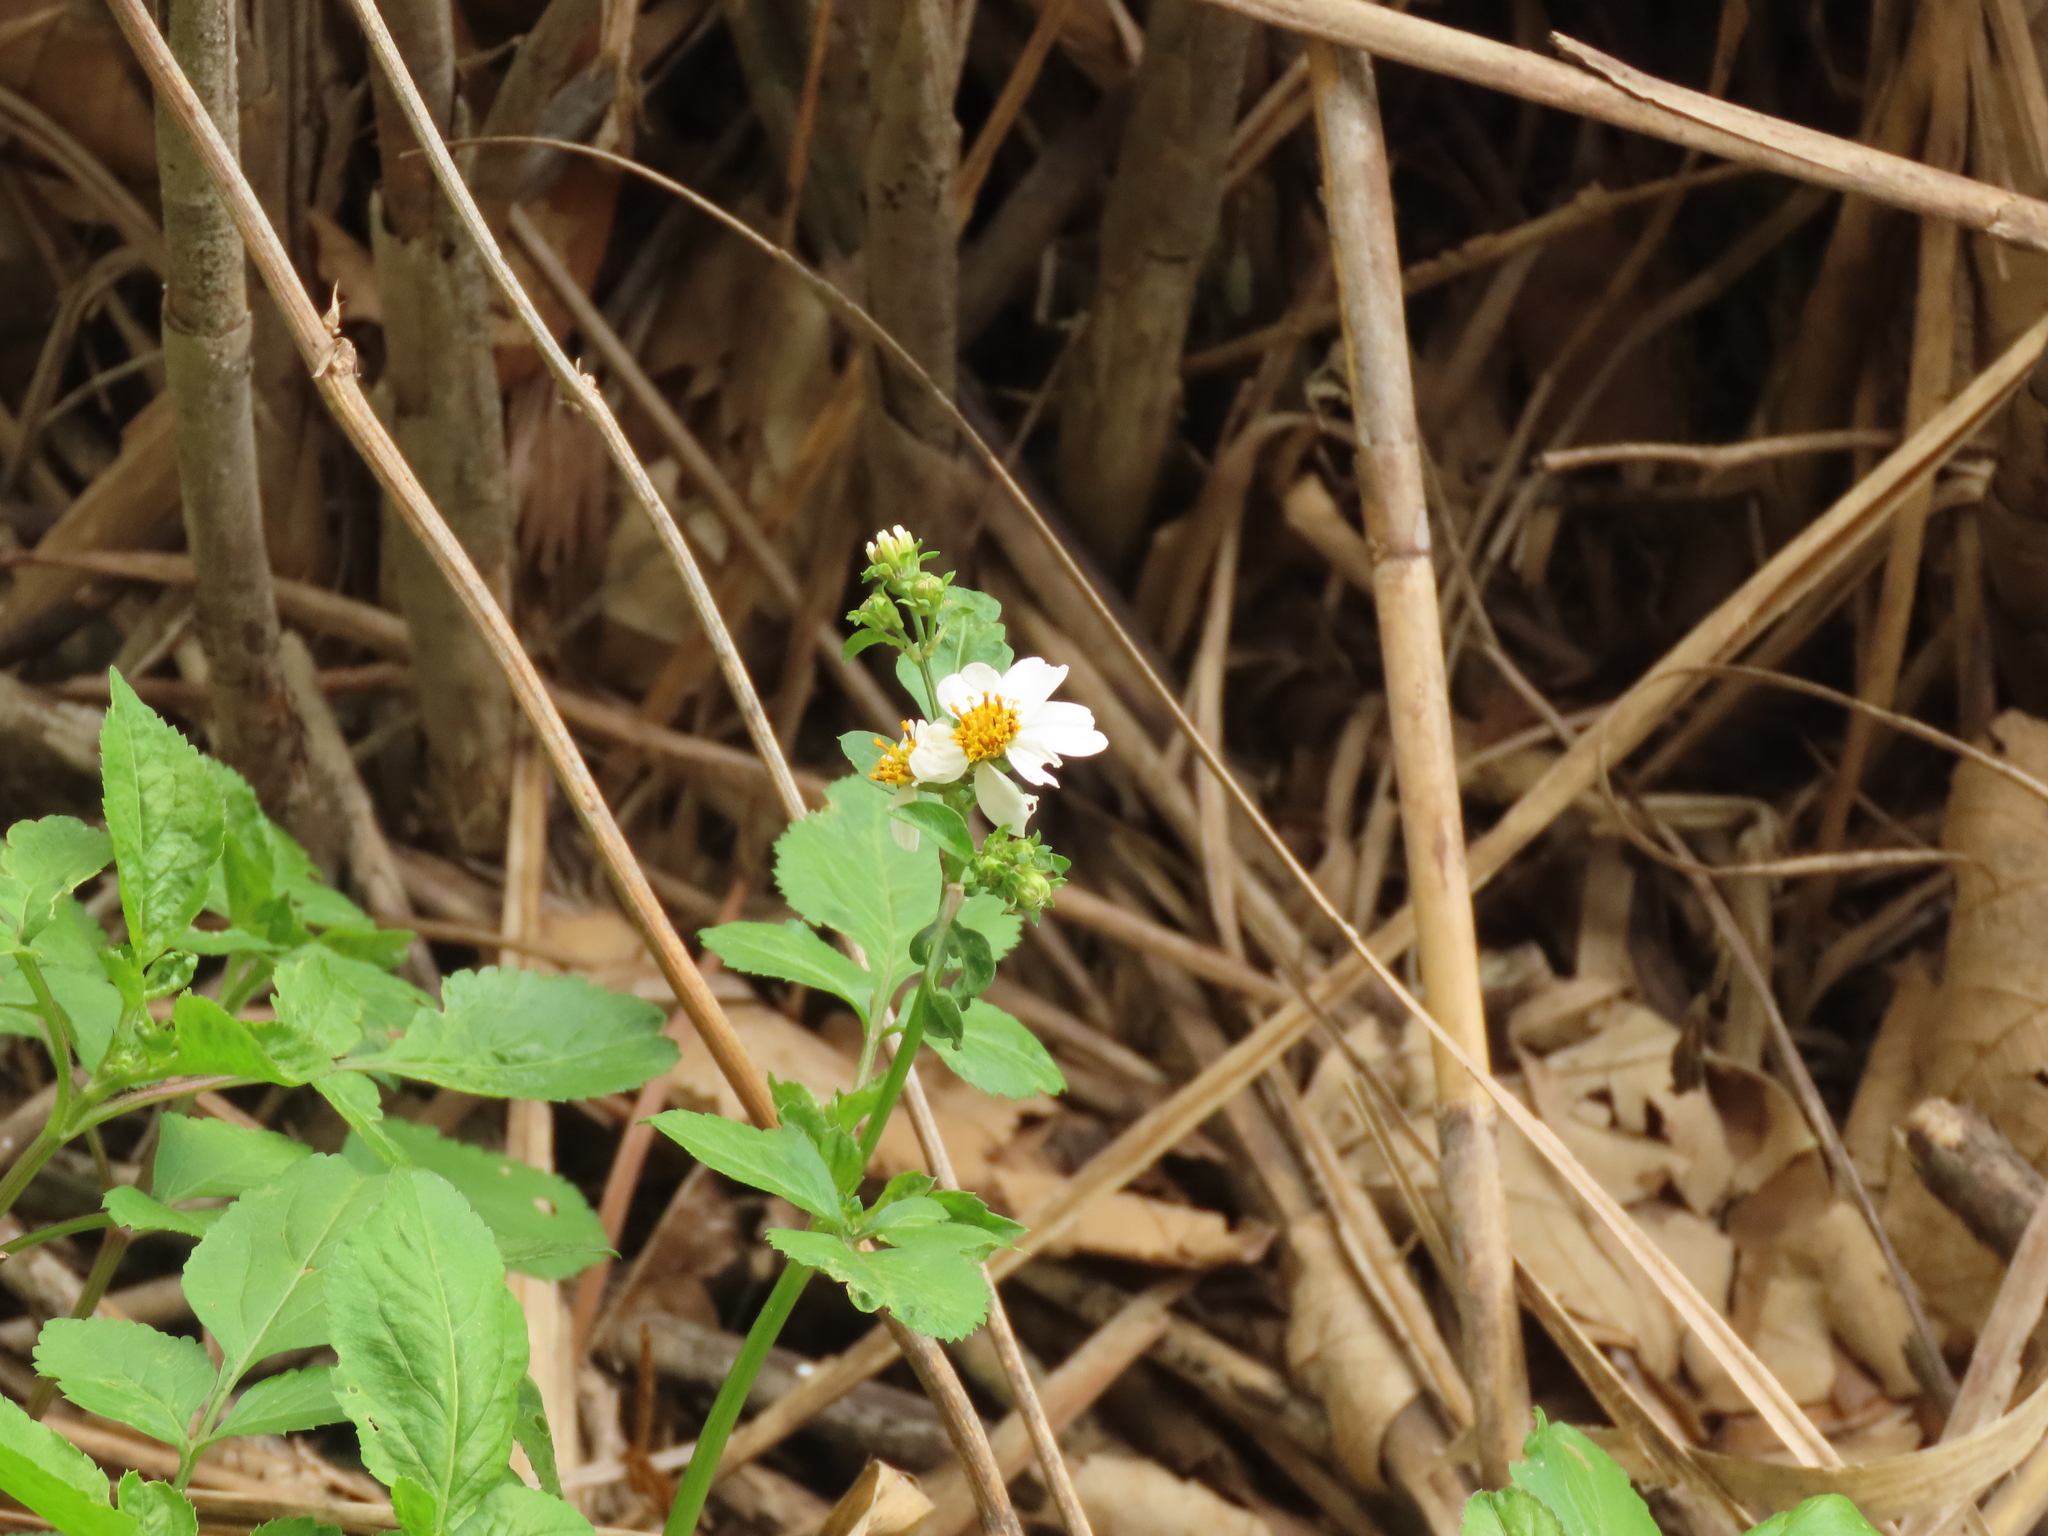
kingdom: Plantae
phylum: Tracheophyta
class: Magnoliopsida
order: Asterales
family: Asteraceae
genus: Bidens
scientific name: Bidens alba
